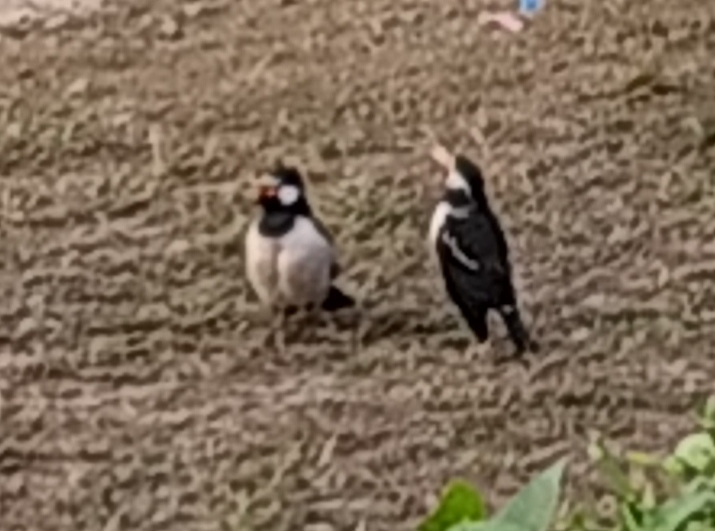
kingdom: Animalia
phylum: Chordata
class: Aves
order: Passeriformes
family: Sturnidae
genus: Gracupica
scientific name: Gracupica contra
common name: Pied myna
